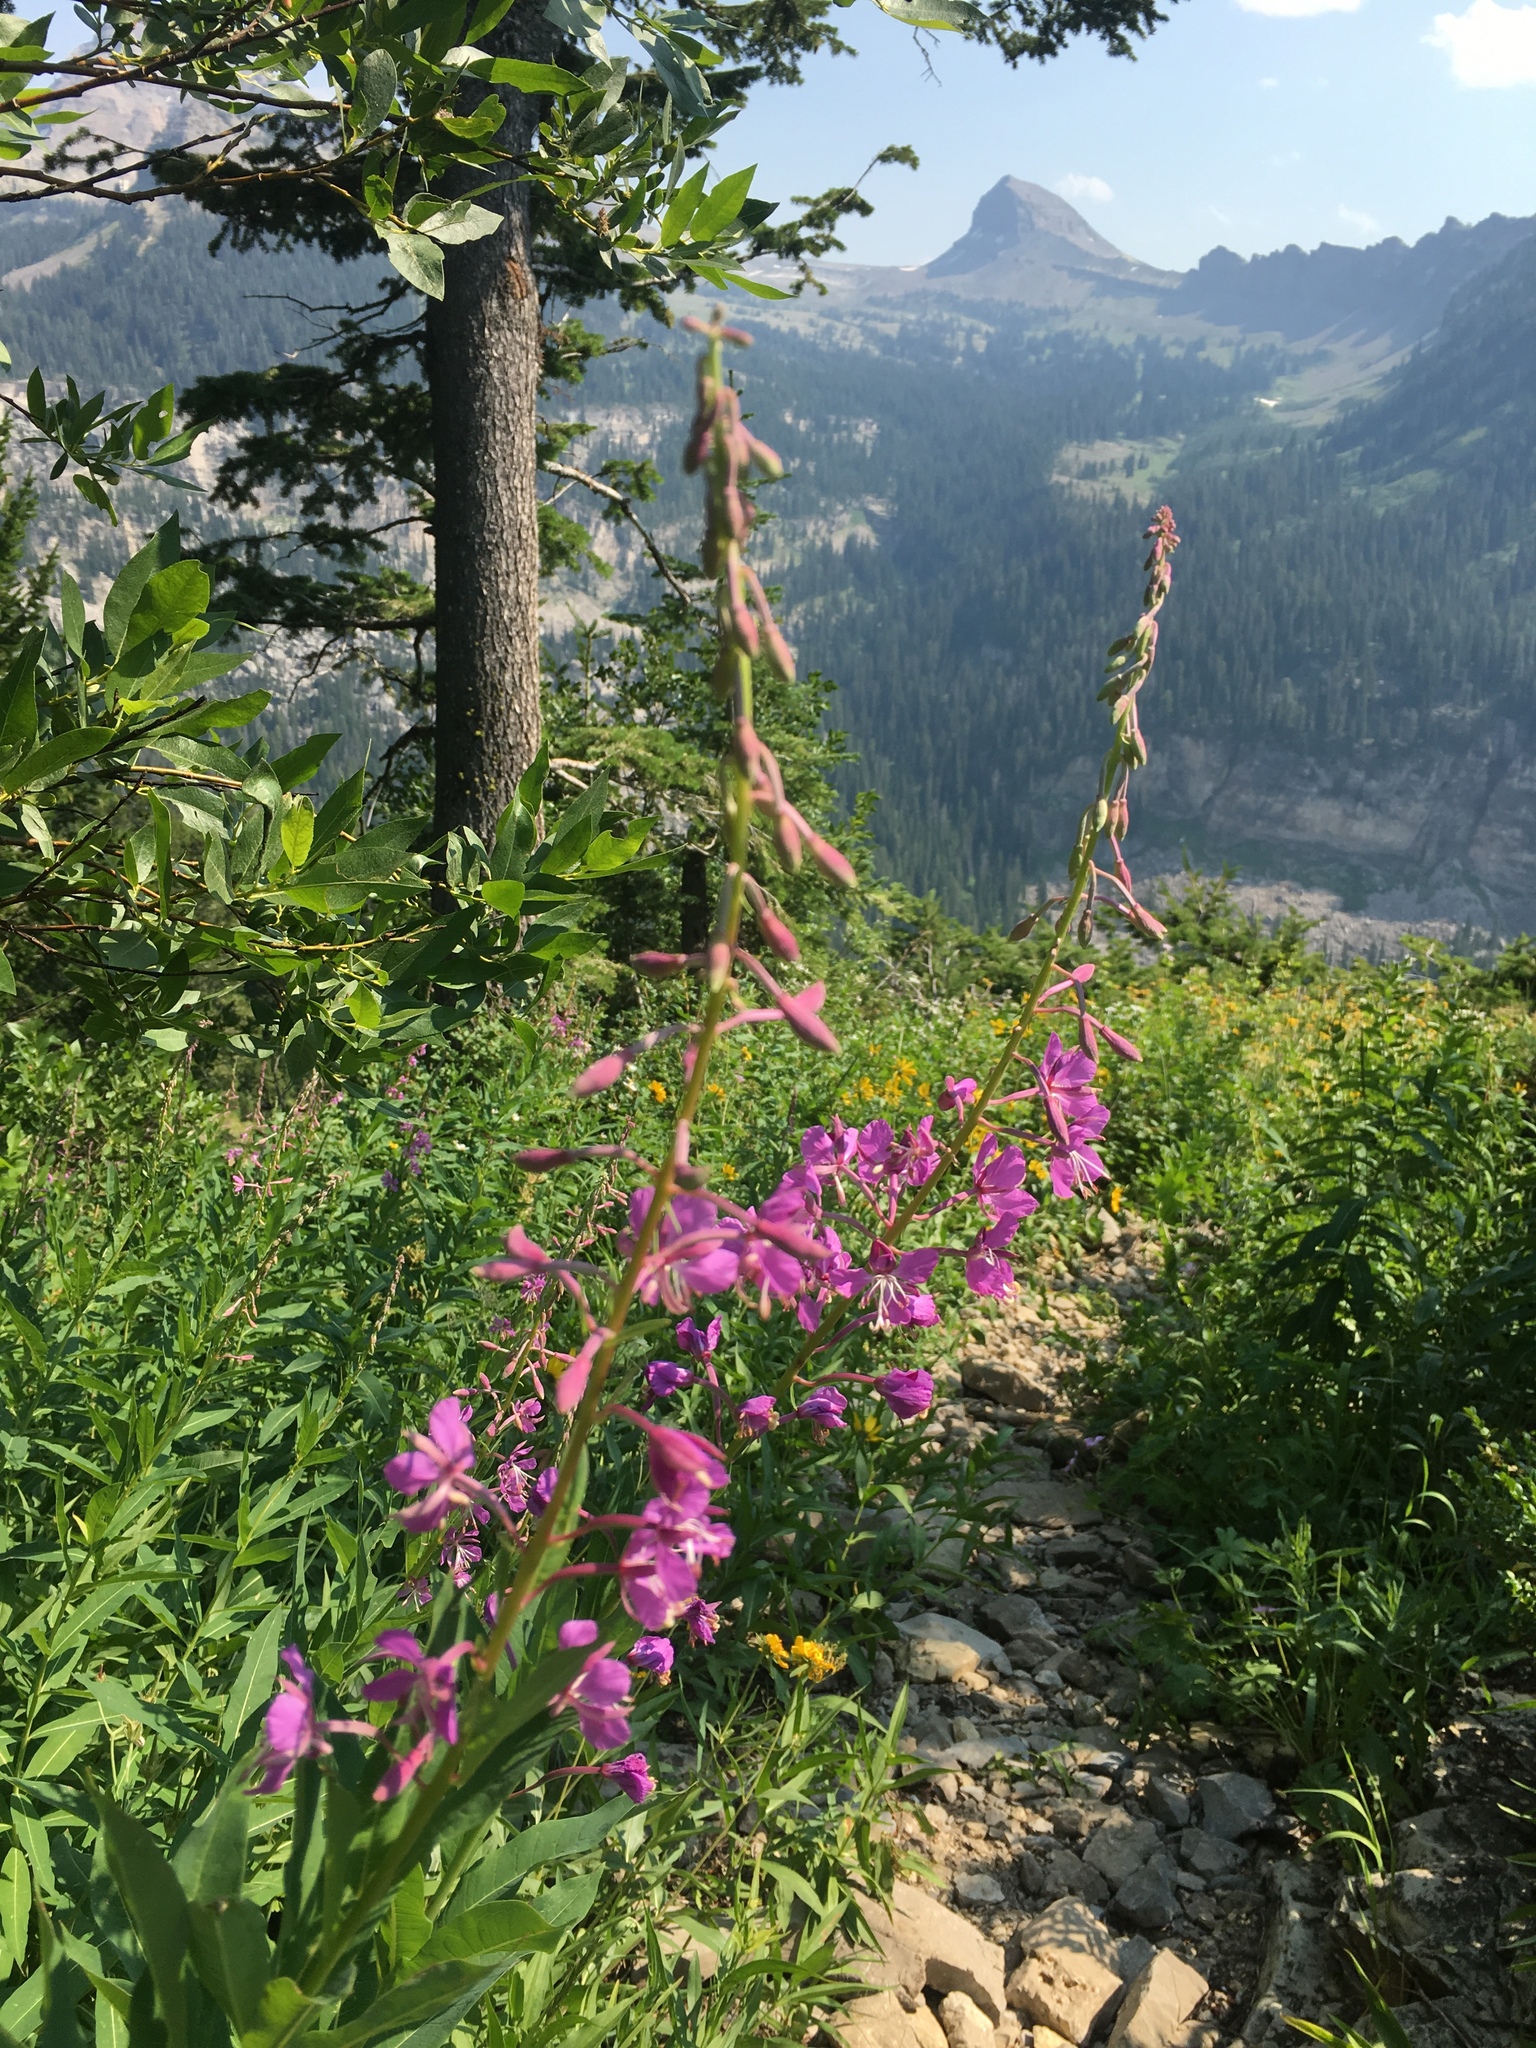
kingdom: Plantae
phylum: Tracheophyta
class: Magnoliopsida
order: Myrtales
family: Onagraceae
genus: Chamaenerion
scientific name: Chamaenerion angustifolium
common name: Fireweed
